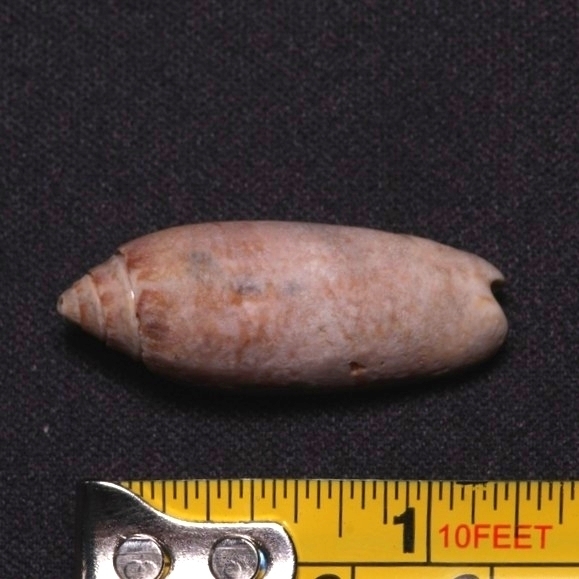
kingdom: Animalia
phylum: Mollusca
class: Gastropoda
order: Neogastropoda
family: Olividae
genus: Oliva
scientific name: Oliva sayana
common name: Lettered olive
